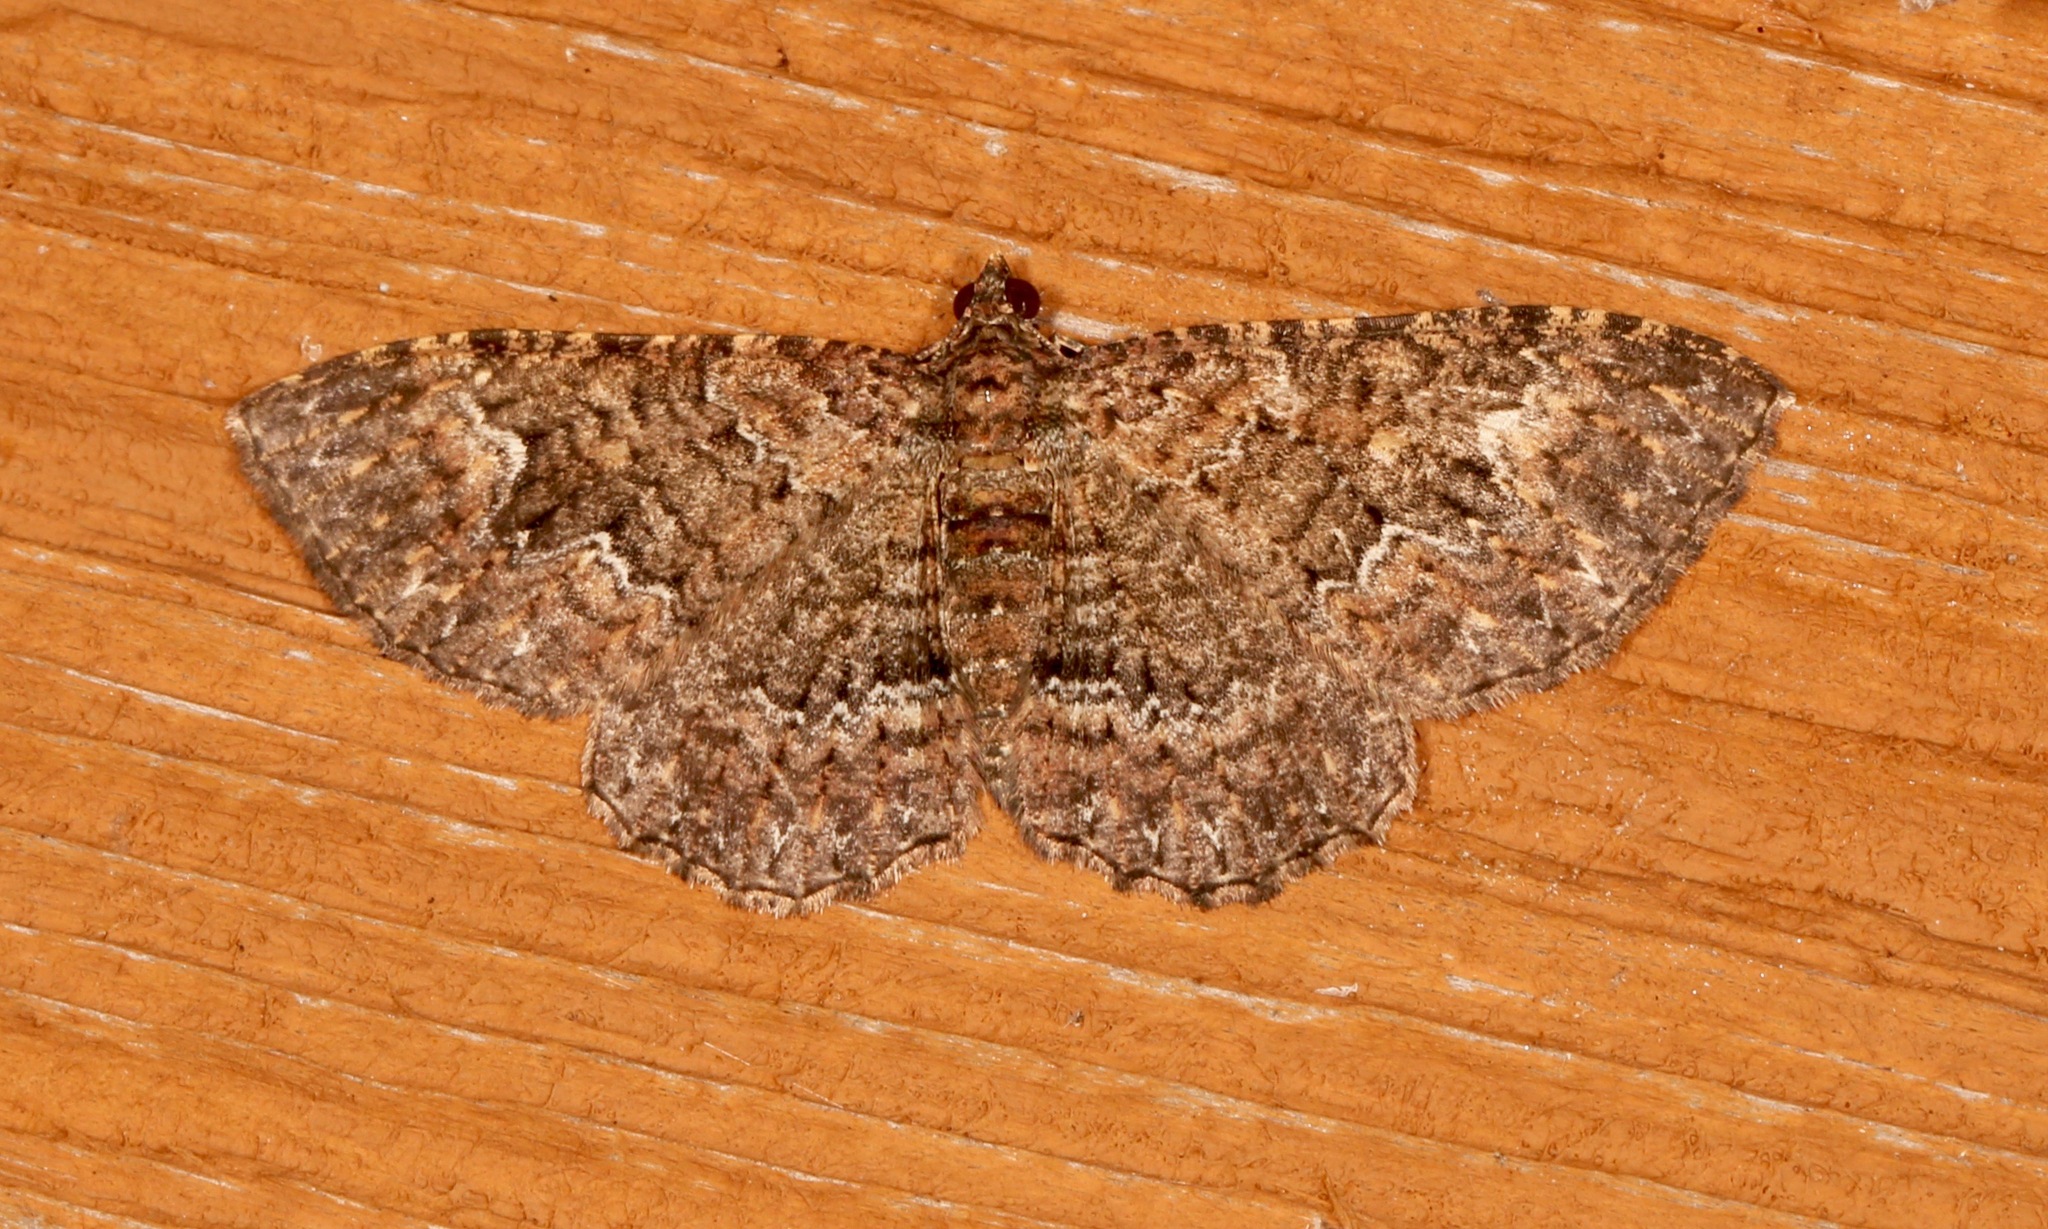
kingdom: Animalia
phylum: Arthropoda
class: Insecta
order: Lepidoptera
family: Geometridae
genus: Disclisioprocta
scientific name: Disclisioprocta stellata
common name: Somber carpet
